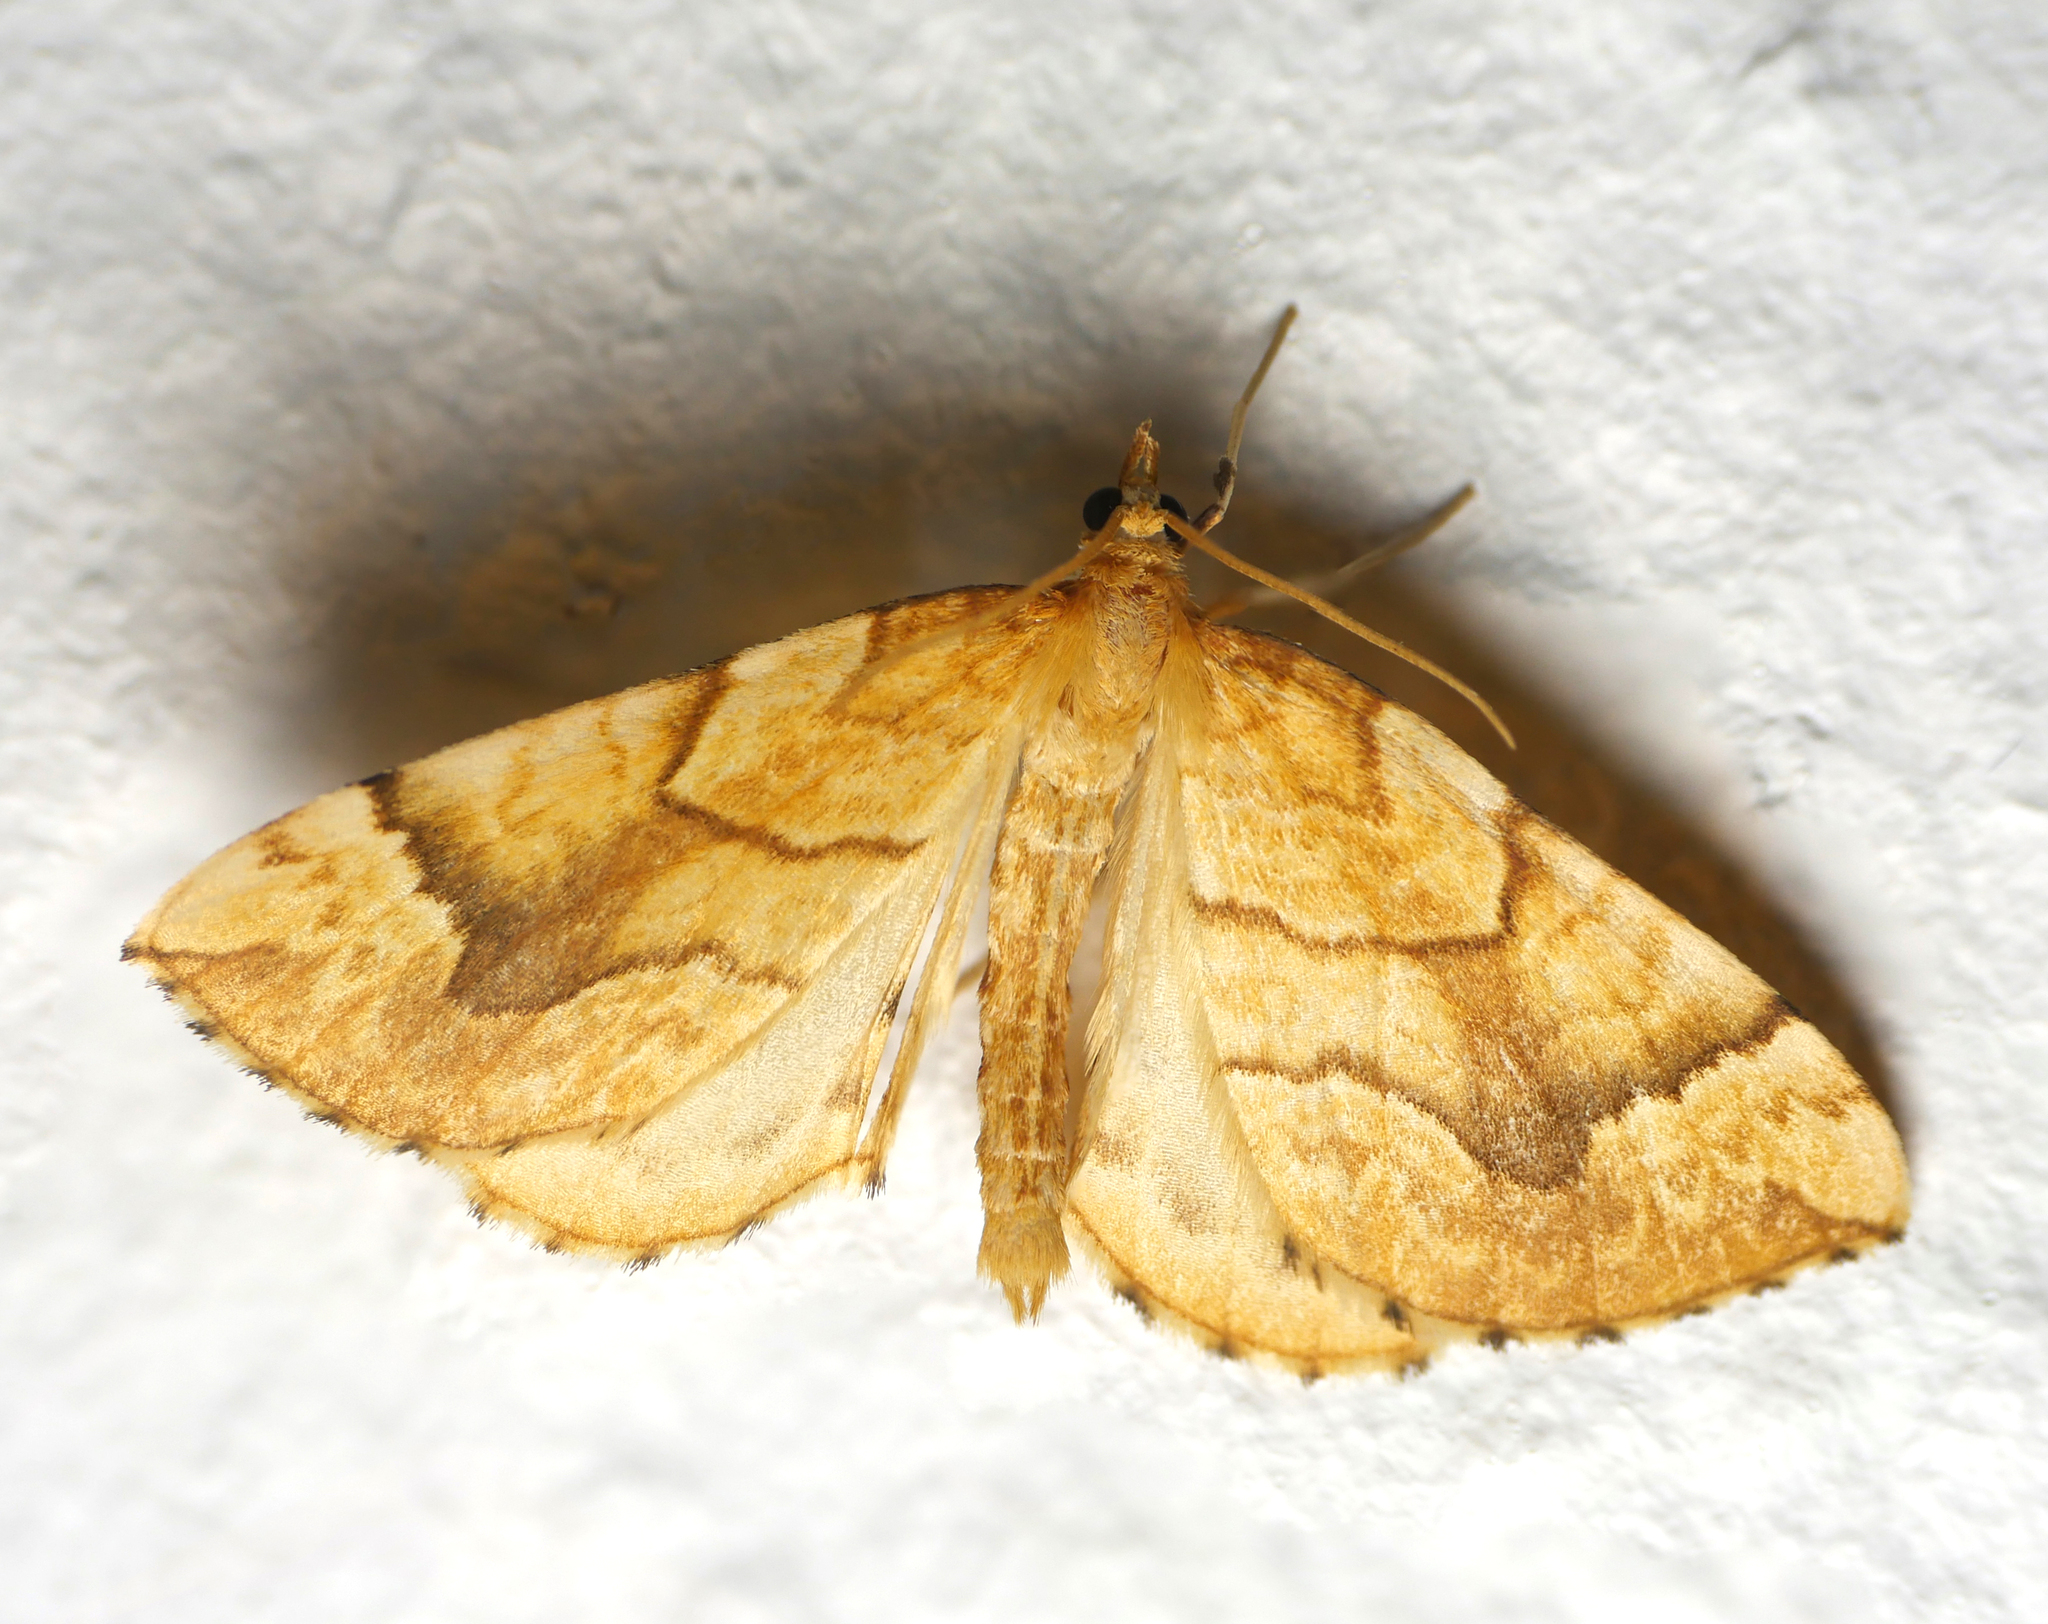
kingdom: Animalia
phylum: Arthropoda
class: Insecta
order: Lepidoptera
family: Geometridae
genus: Eulithis
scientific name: Eulithis mellinata
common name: Spinach
